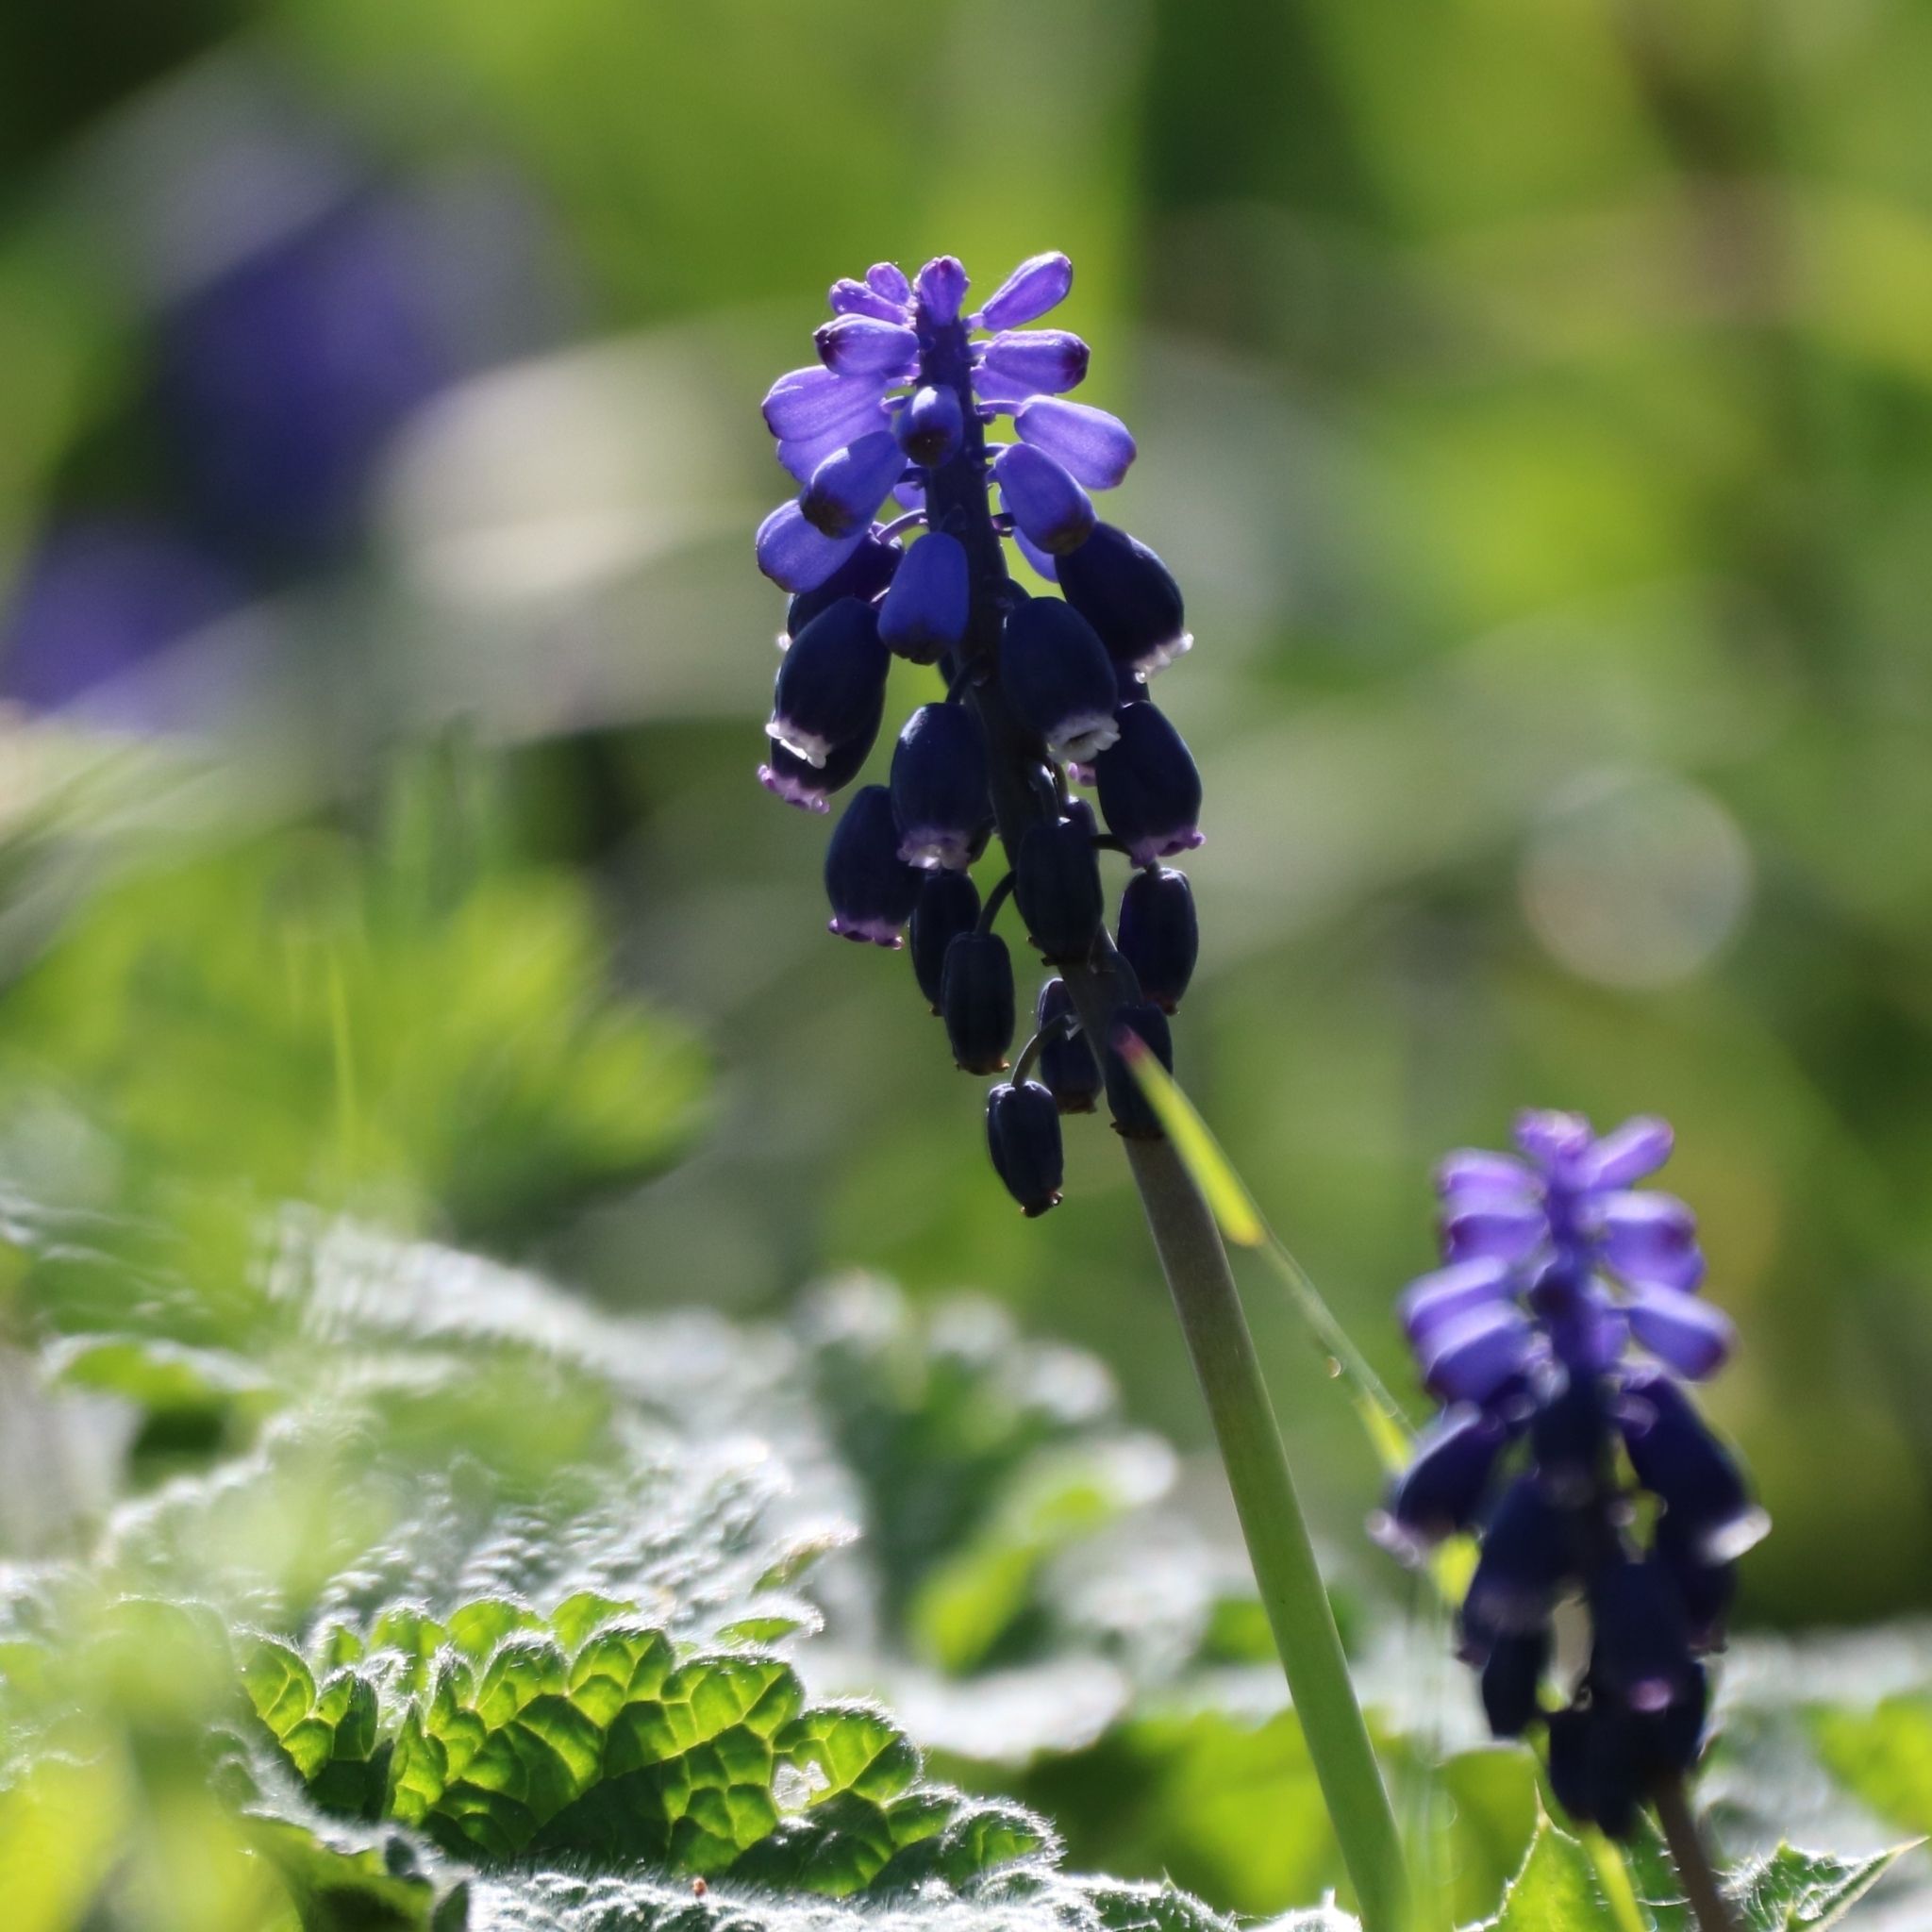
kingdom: Plantae
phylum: Tracheophyta
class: Liliopsida
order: Asparagales
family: Asparagaceae
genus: Muscari
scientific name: Muscari neglectum
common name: Grape-hyacinth
